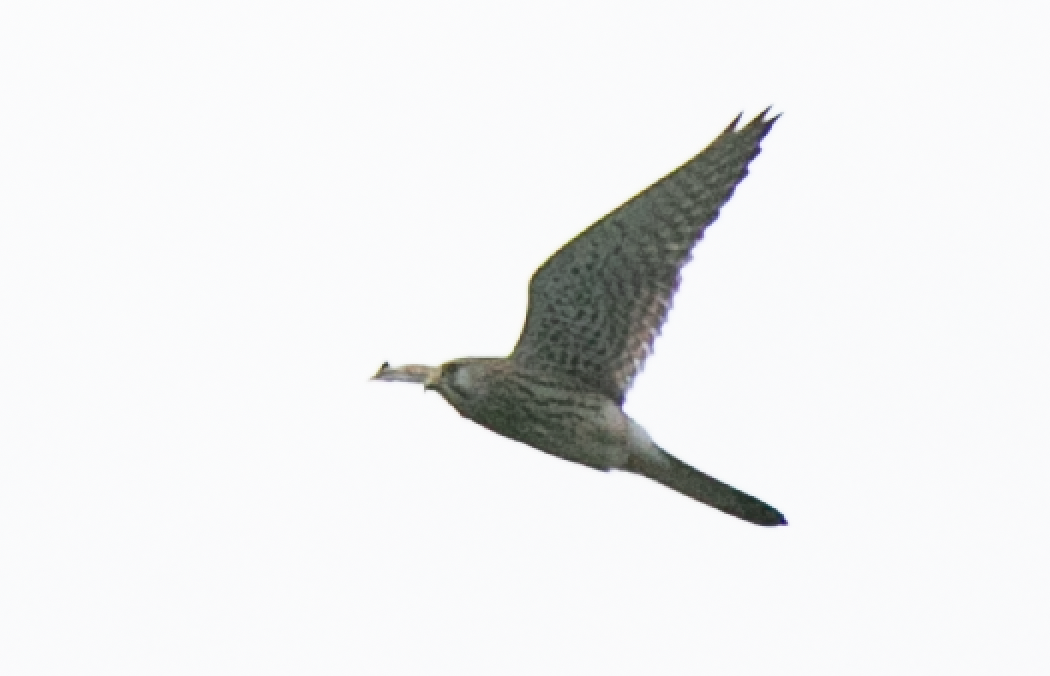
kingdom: Animalia
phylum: Chordata
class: Aves
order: Falconiformes
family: Falconidae
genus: Falco
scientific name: Falco tinnunculus
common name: Common kestrel
